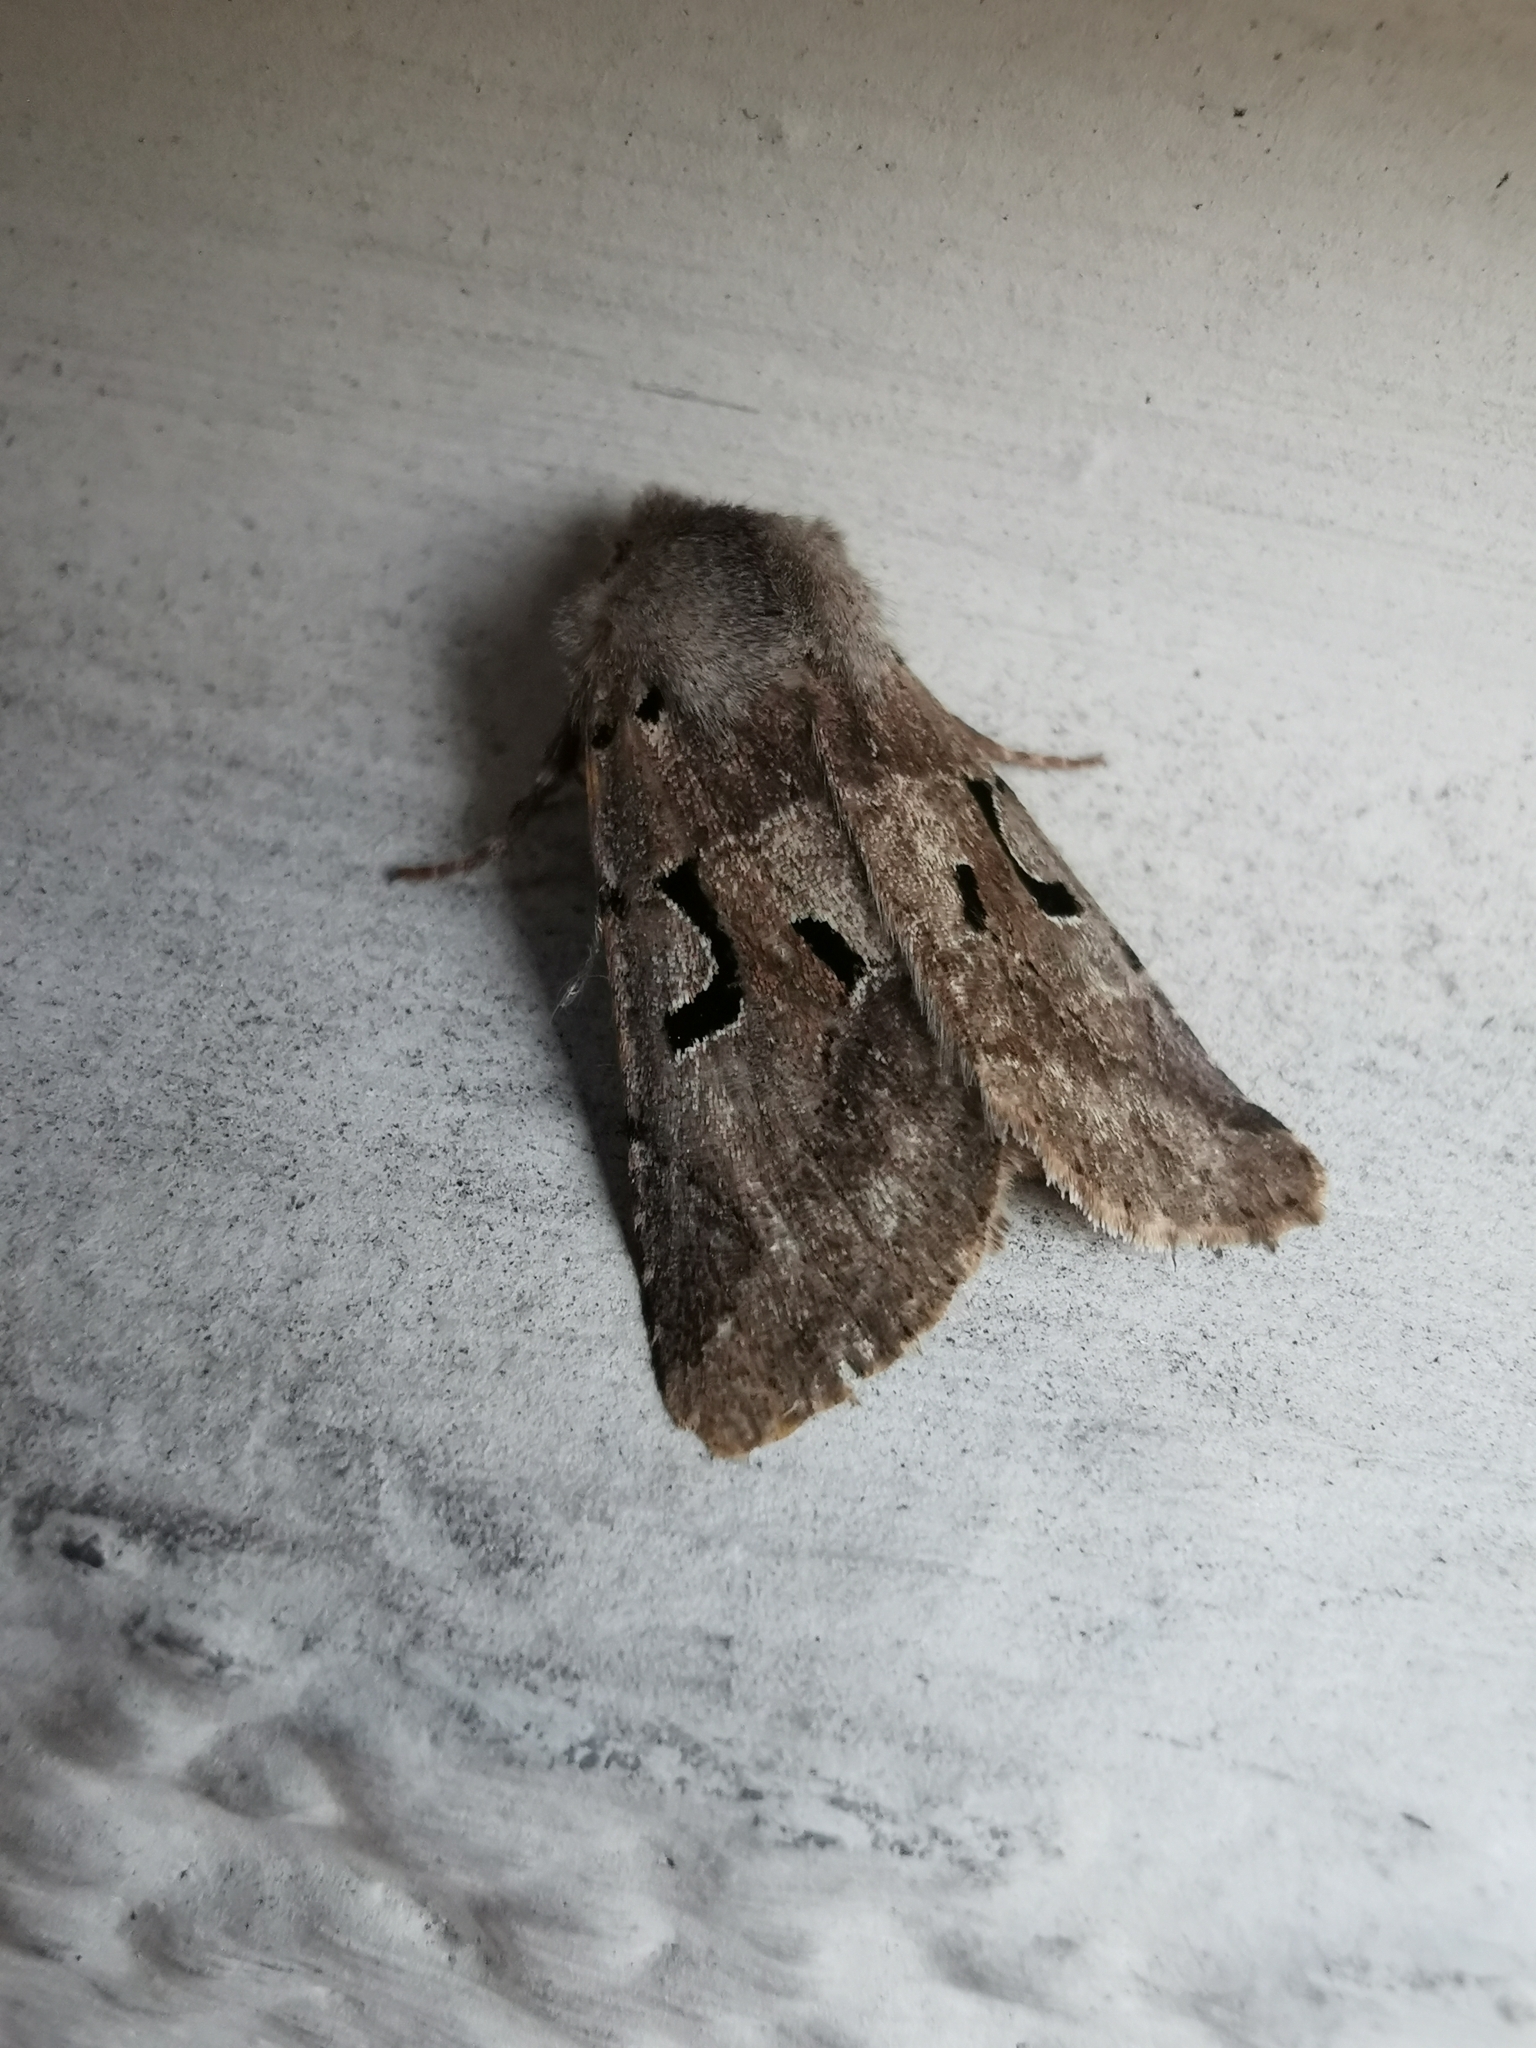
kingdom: Animalia
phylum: Arthropoda
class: Insecta
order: Lepidoptera
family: Noctuidae
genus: Orthosia
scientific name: Orthosia gothica
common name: Hebrew character
